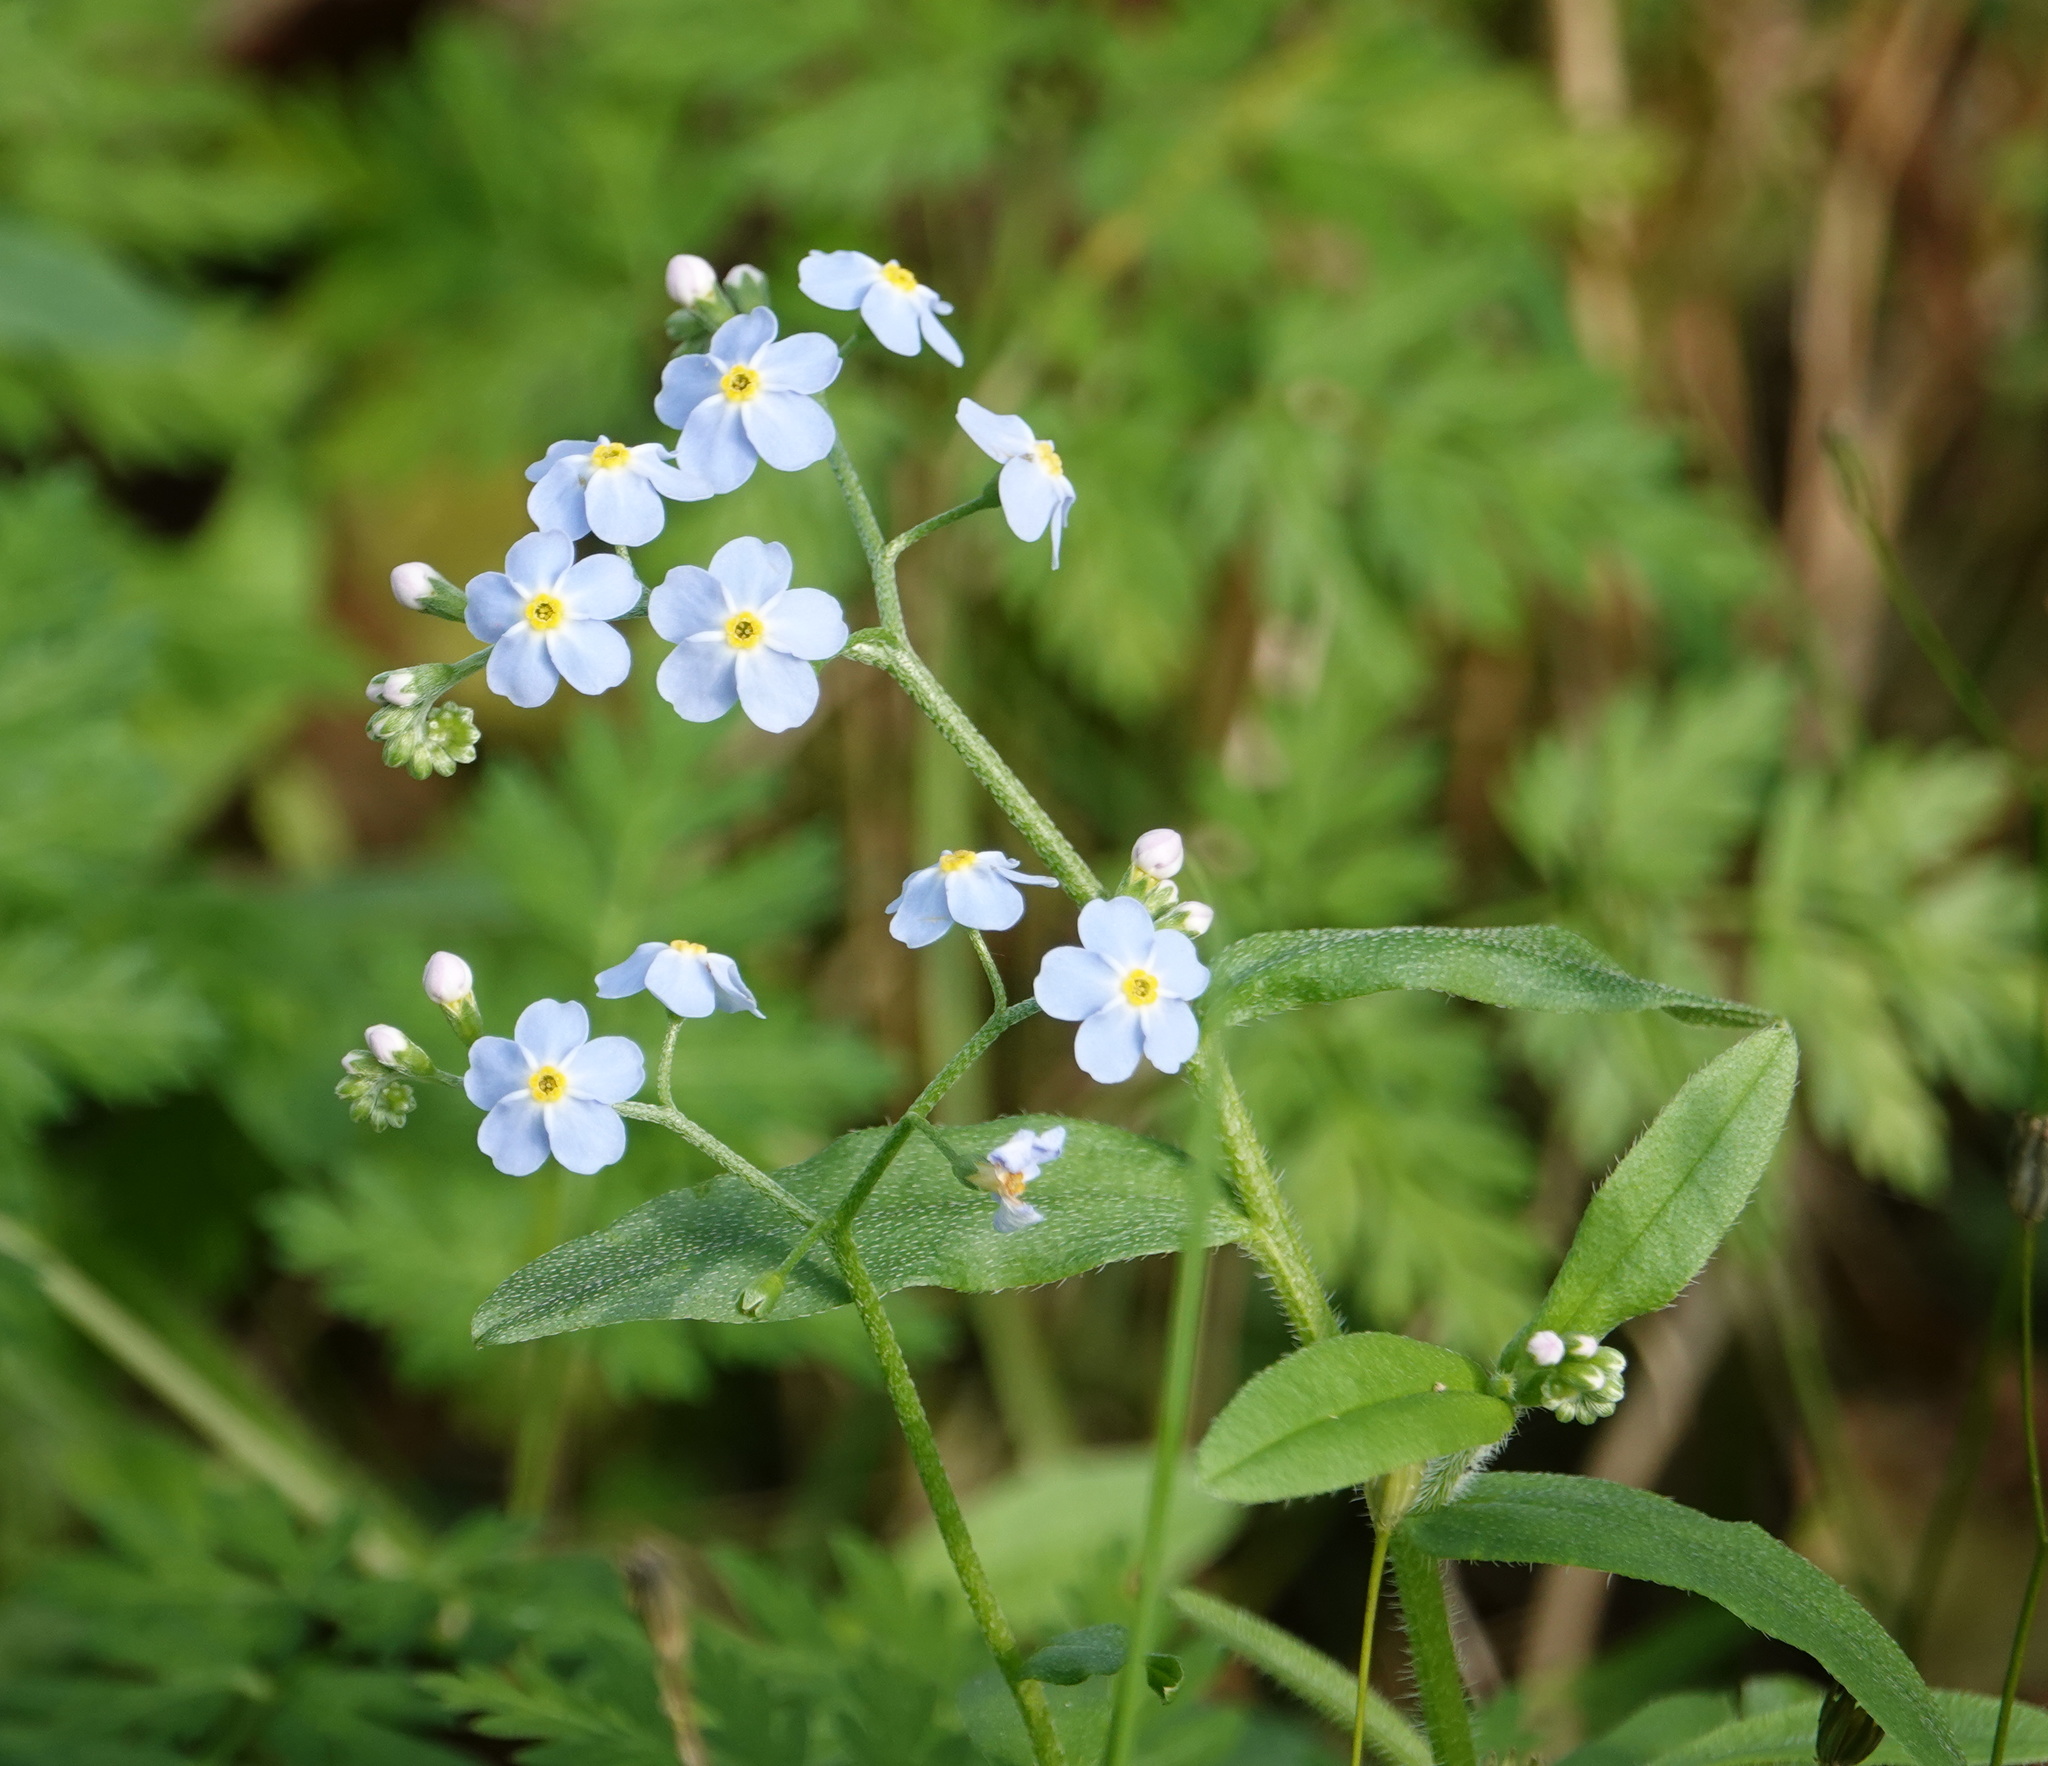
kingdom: Plantae
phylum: Tracheophyta
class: Magnoliopsida
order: Boraginales
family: Boraginaceae
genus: Myosotis
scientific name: Myosotis scorpioides
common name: Water forget-me-not
